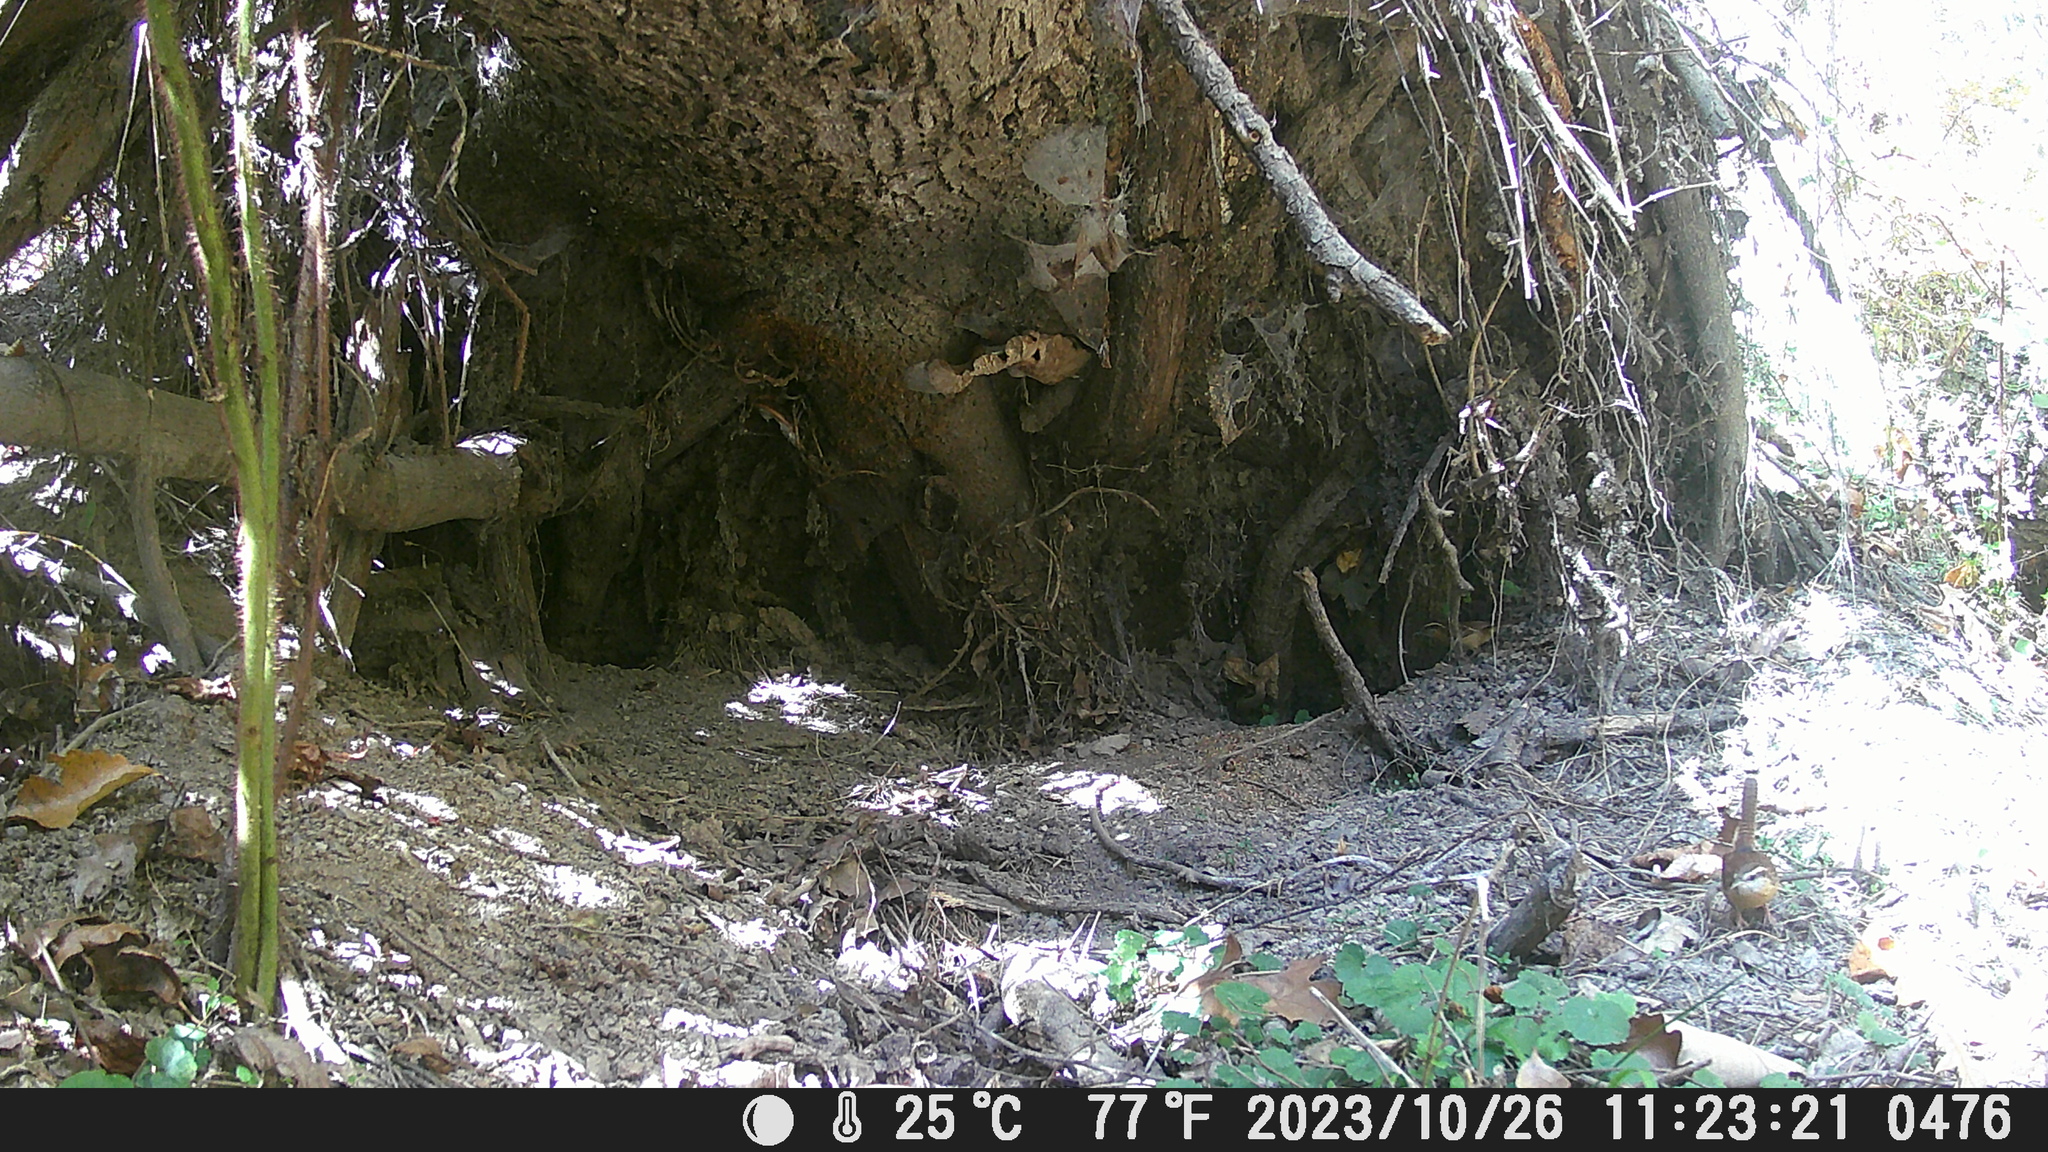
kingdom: Animalia
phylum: Chordata
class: Aves
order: Passeriformes
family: Troglodytidae
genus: Thryothorus
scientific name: Thryothorus ludovicianus
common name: Carolina wren
